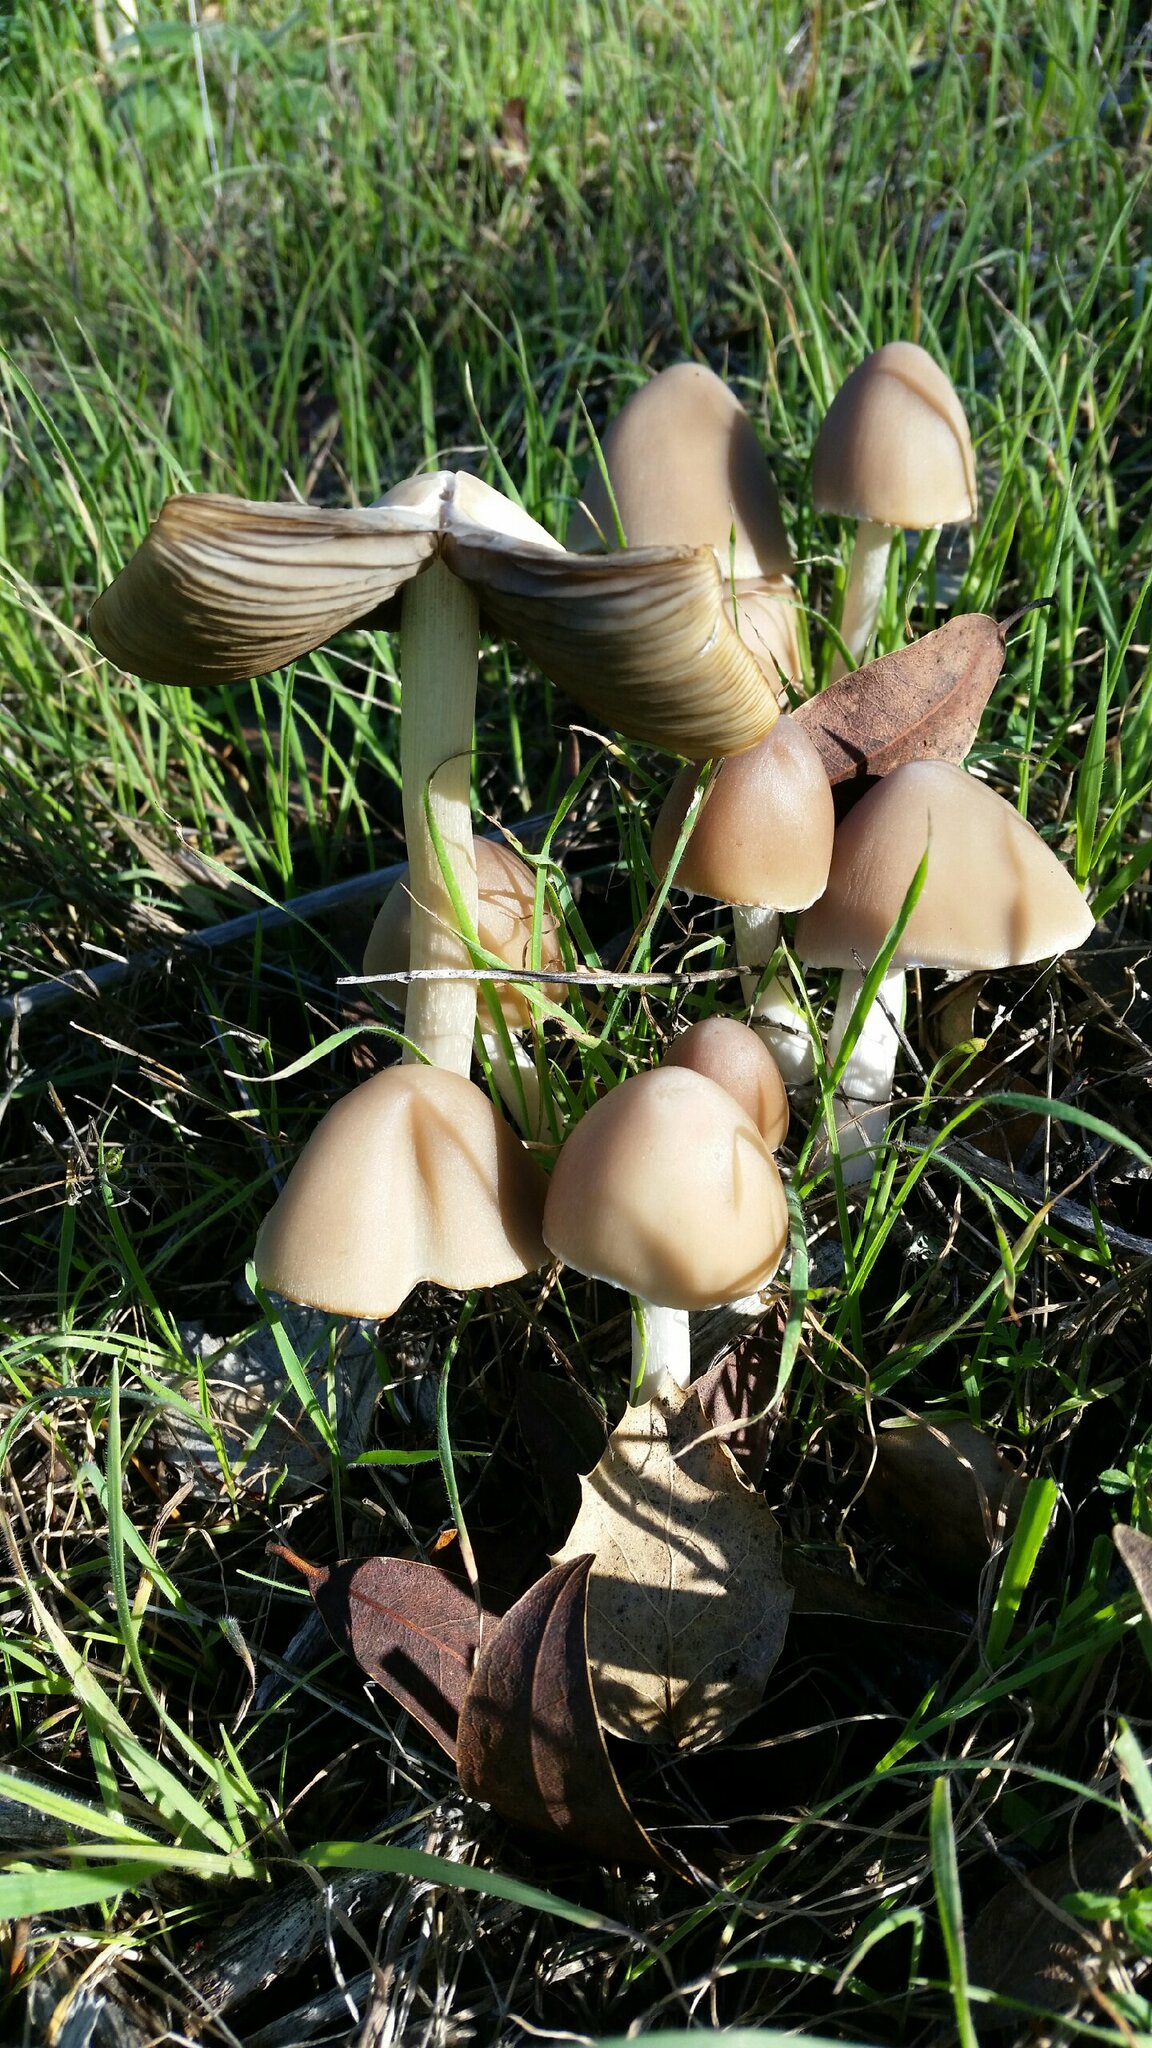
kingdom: Fungi
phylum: Basidiomycota
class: Agaricomycetes
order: Agaricales
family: Psathyrellaceae
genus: Psathyrella
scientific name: Psathyrella longipes
